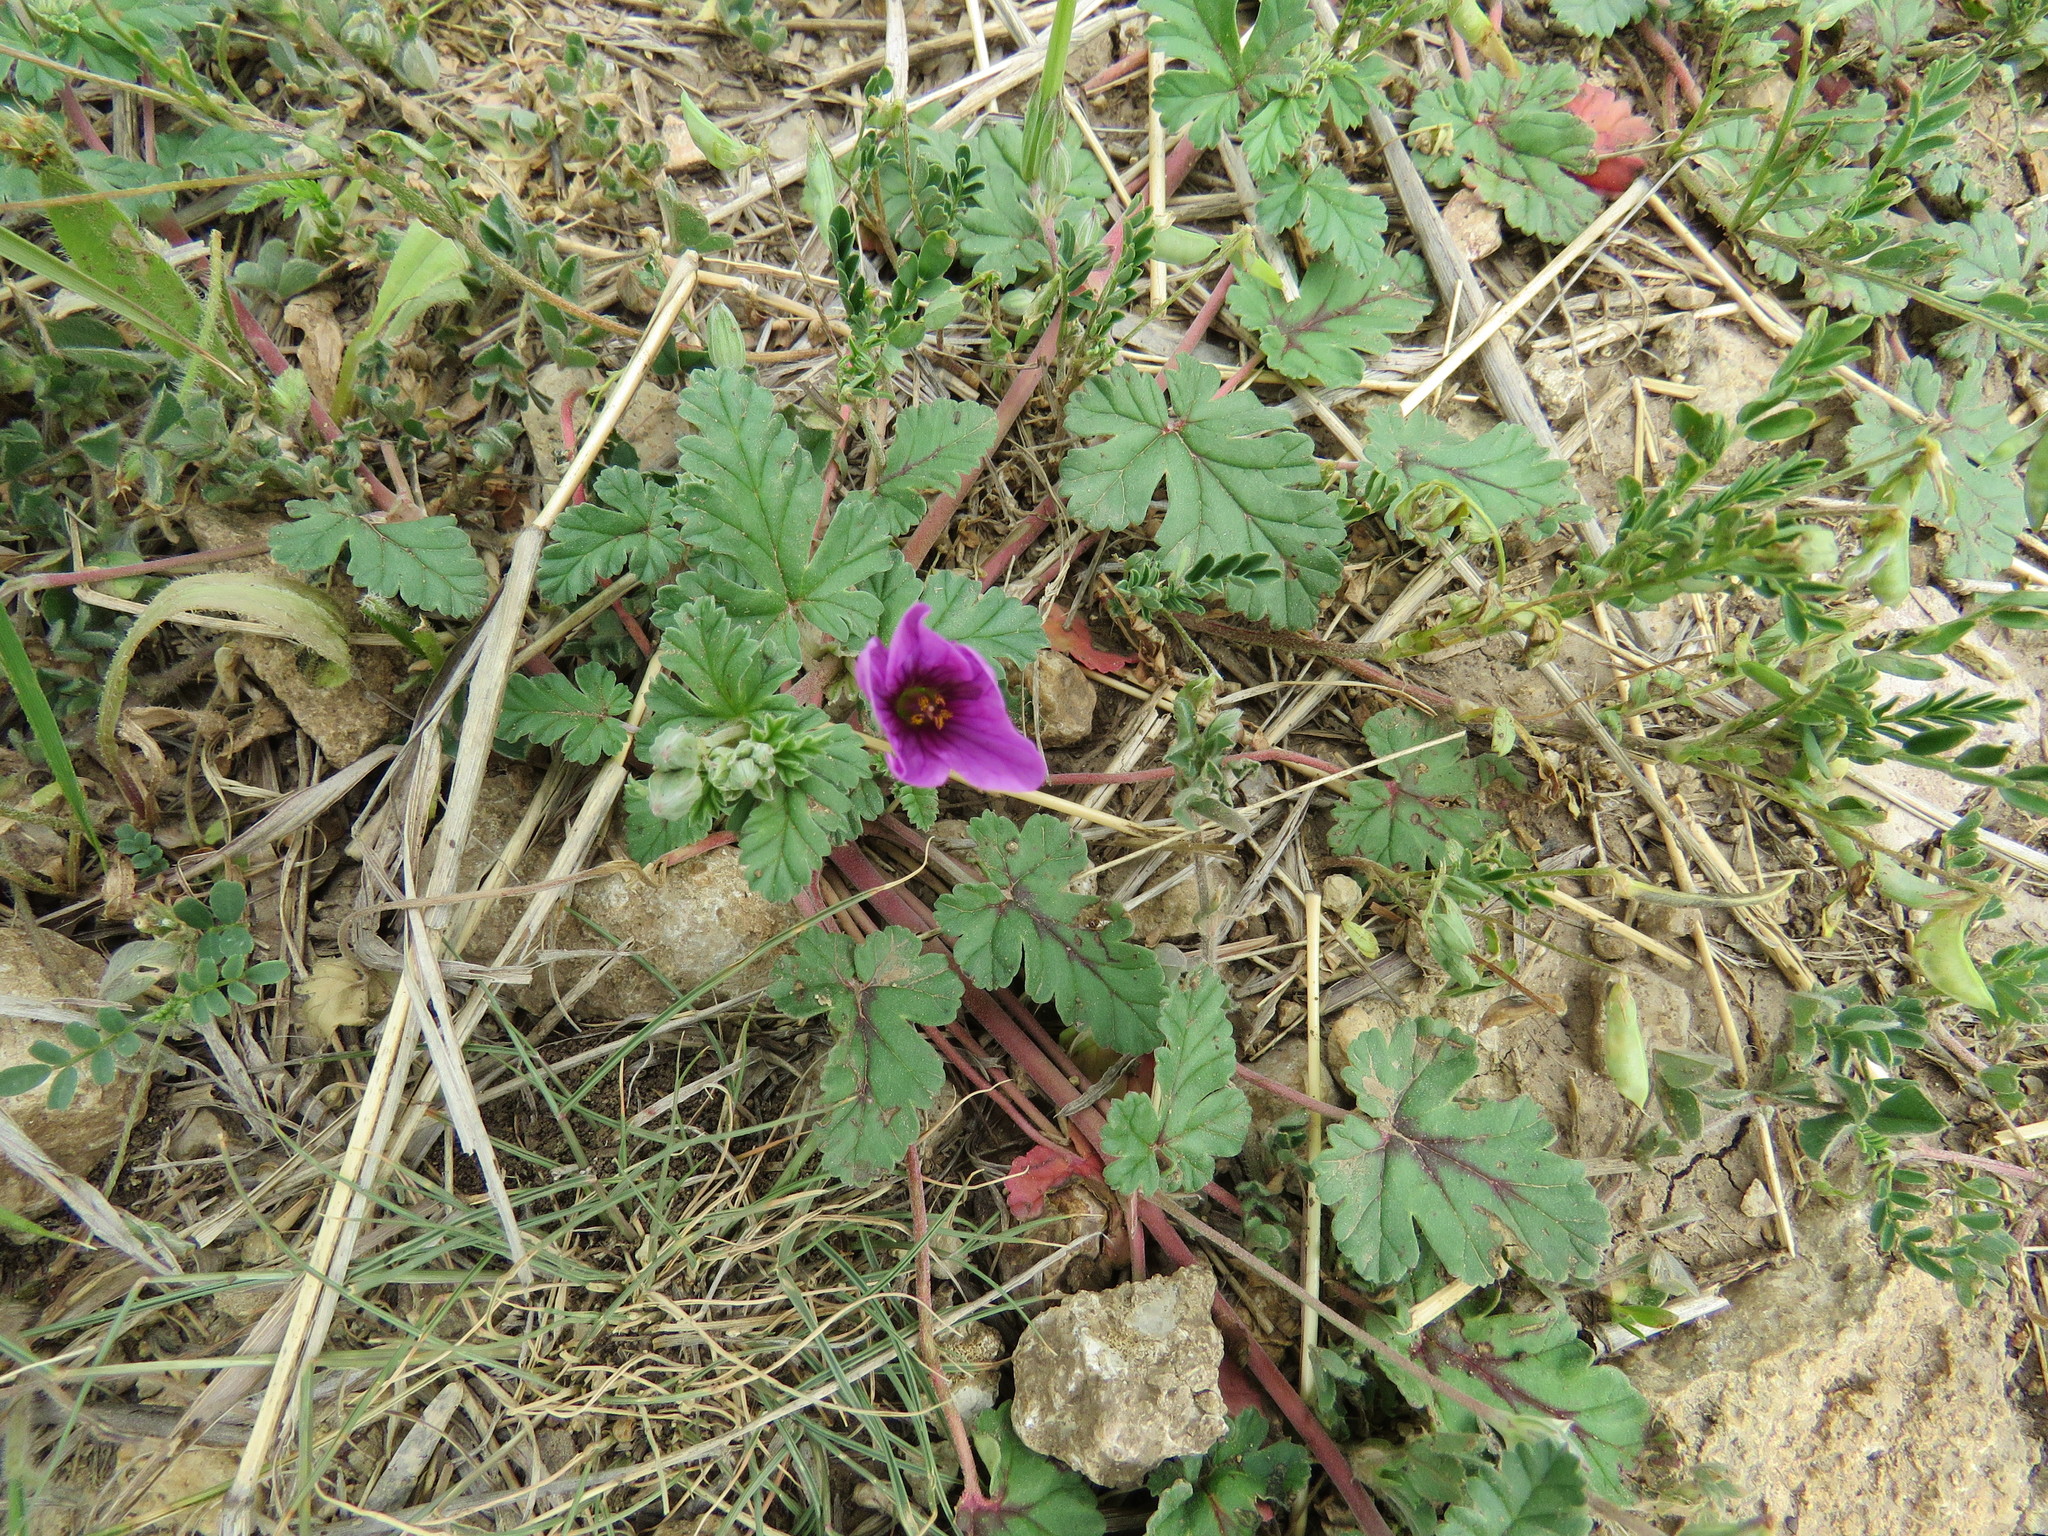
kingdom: Plantae
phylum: Tracheophyta
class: Magnoliopsida
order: Geraniales
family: Geraniaceae
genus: Erodium
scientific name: Erodium texanum
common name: Texas stork's-bill
